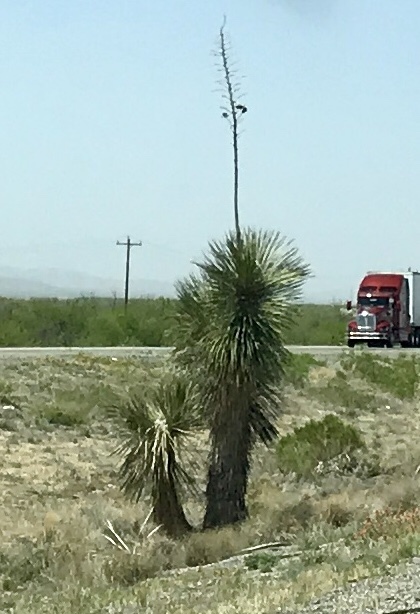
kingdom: Plantae
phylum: Tracheophyta
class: Liliopsida
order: Asparagales
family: Asparagaceae
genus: Yucca
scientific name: Yucca elata
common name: Palmella
